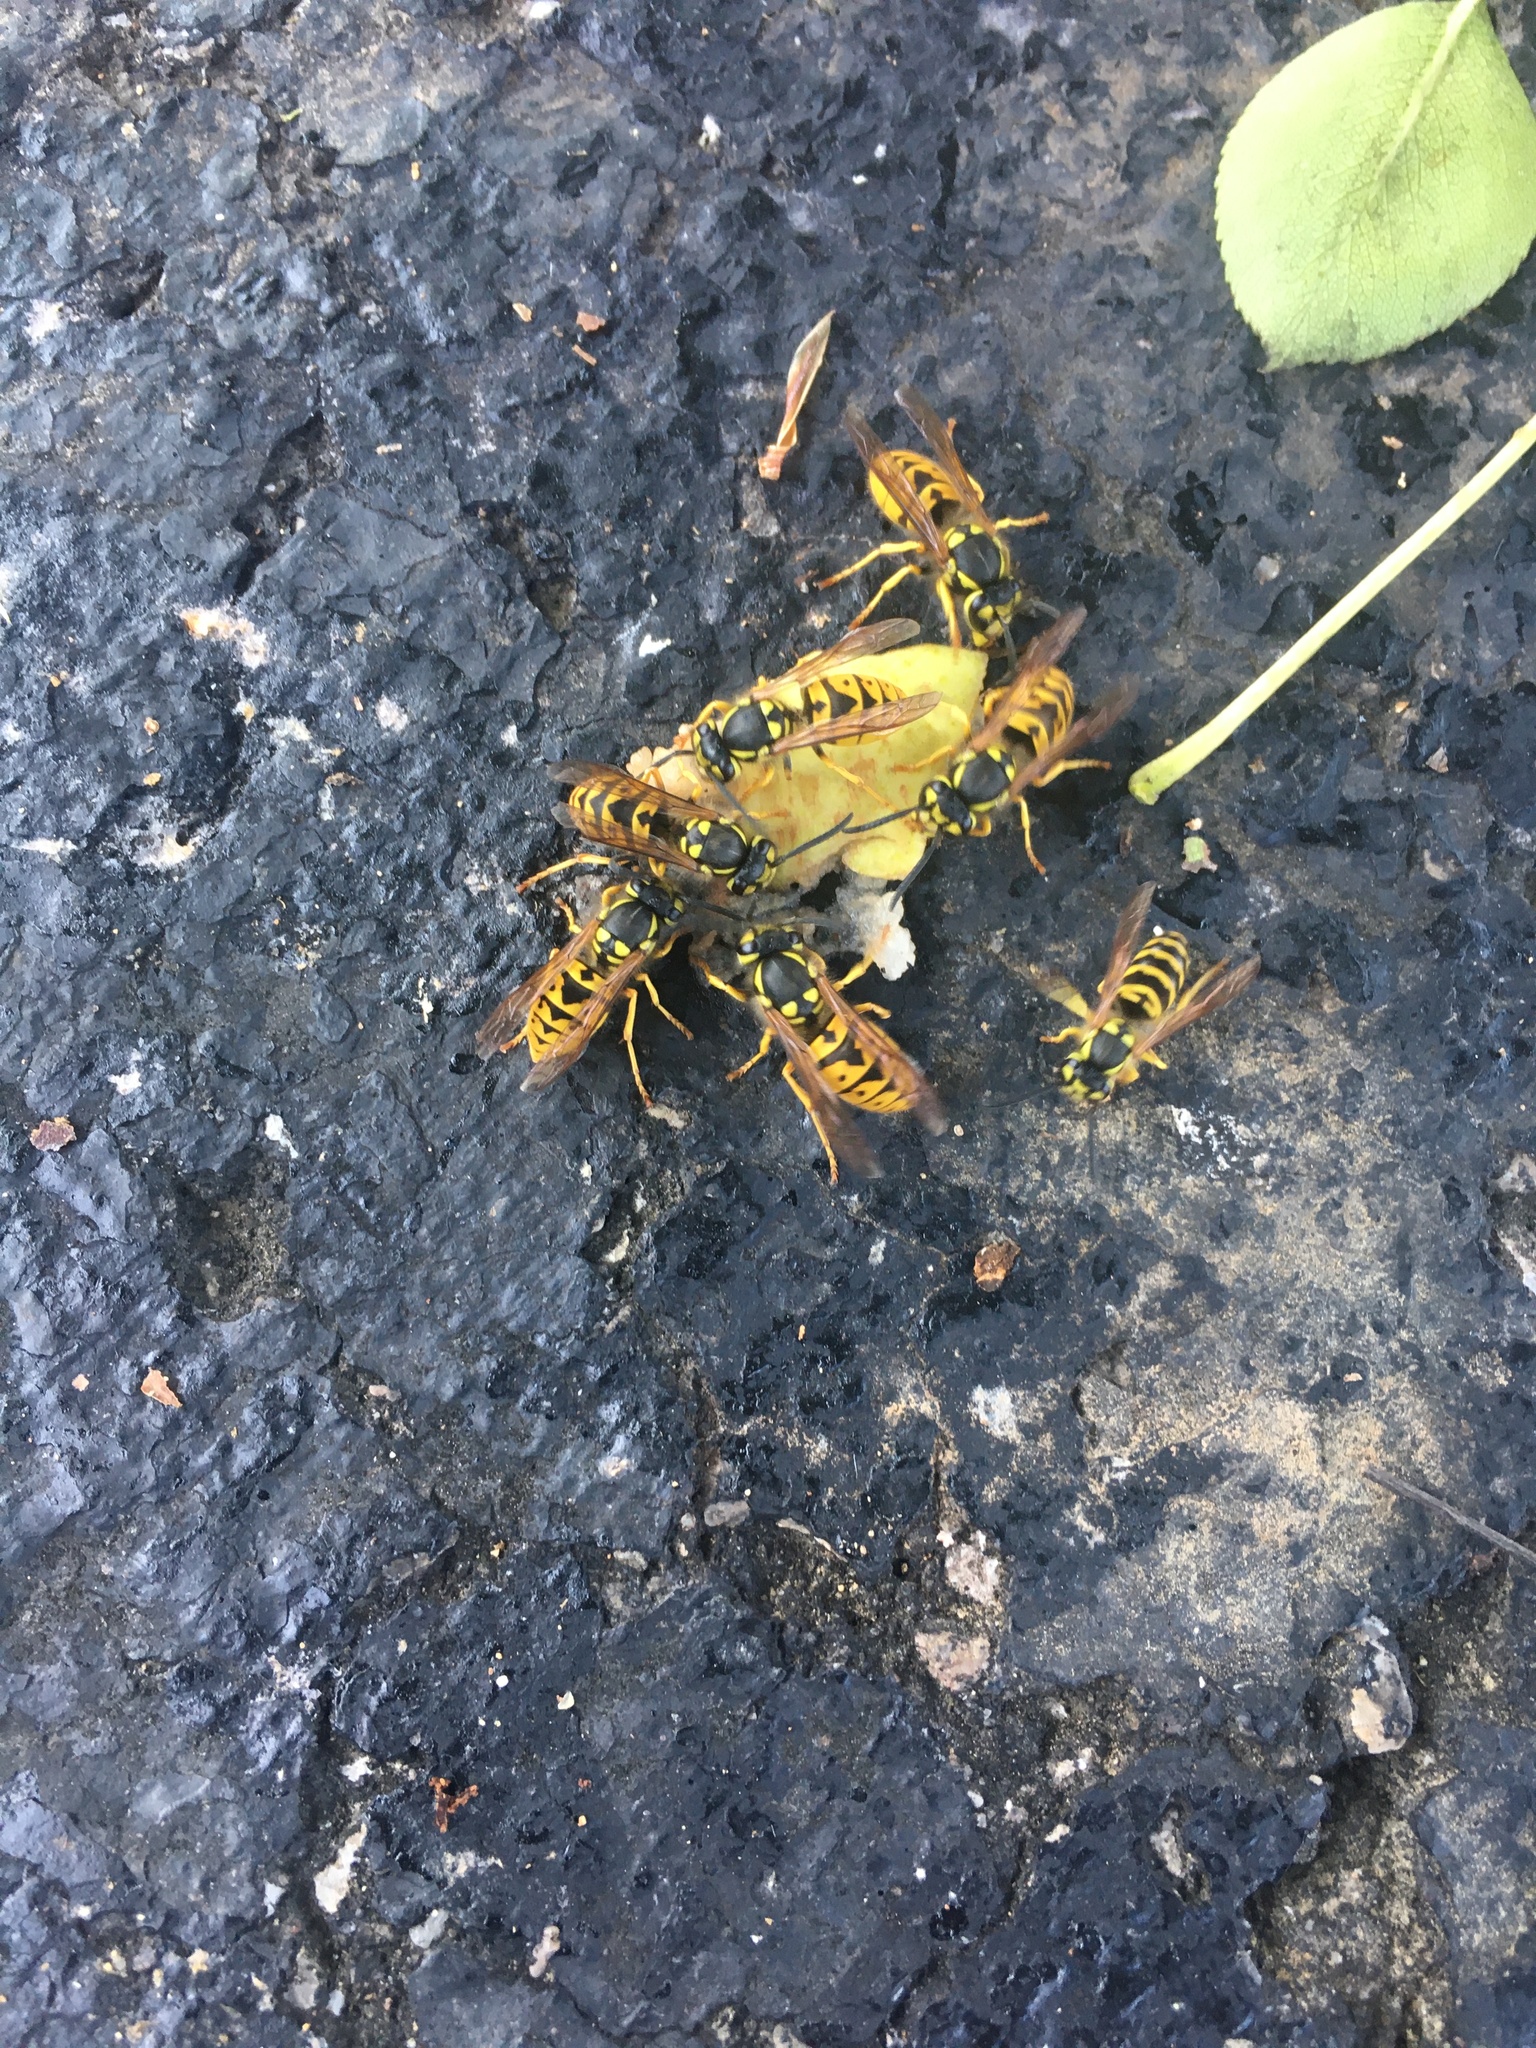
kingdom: Animalia
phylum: Arthropoda
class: Insecta
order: Hymenoptera
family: Vespidae
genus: Vespula
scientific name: Vespula germanica
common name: German wasp
